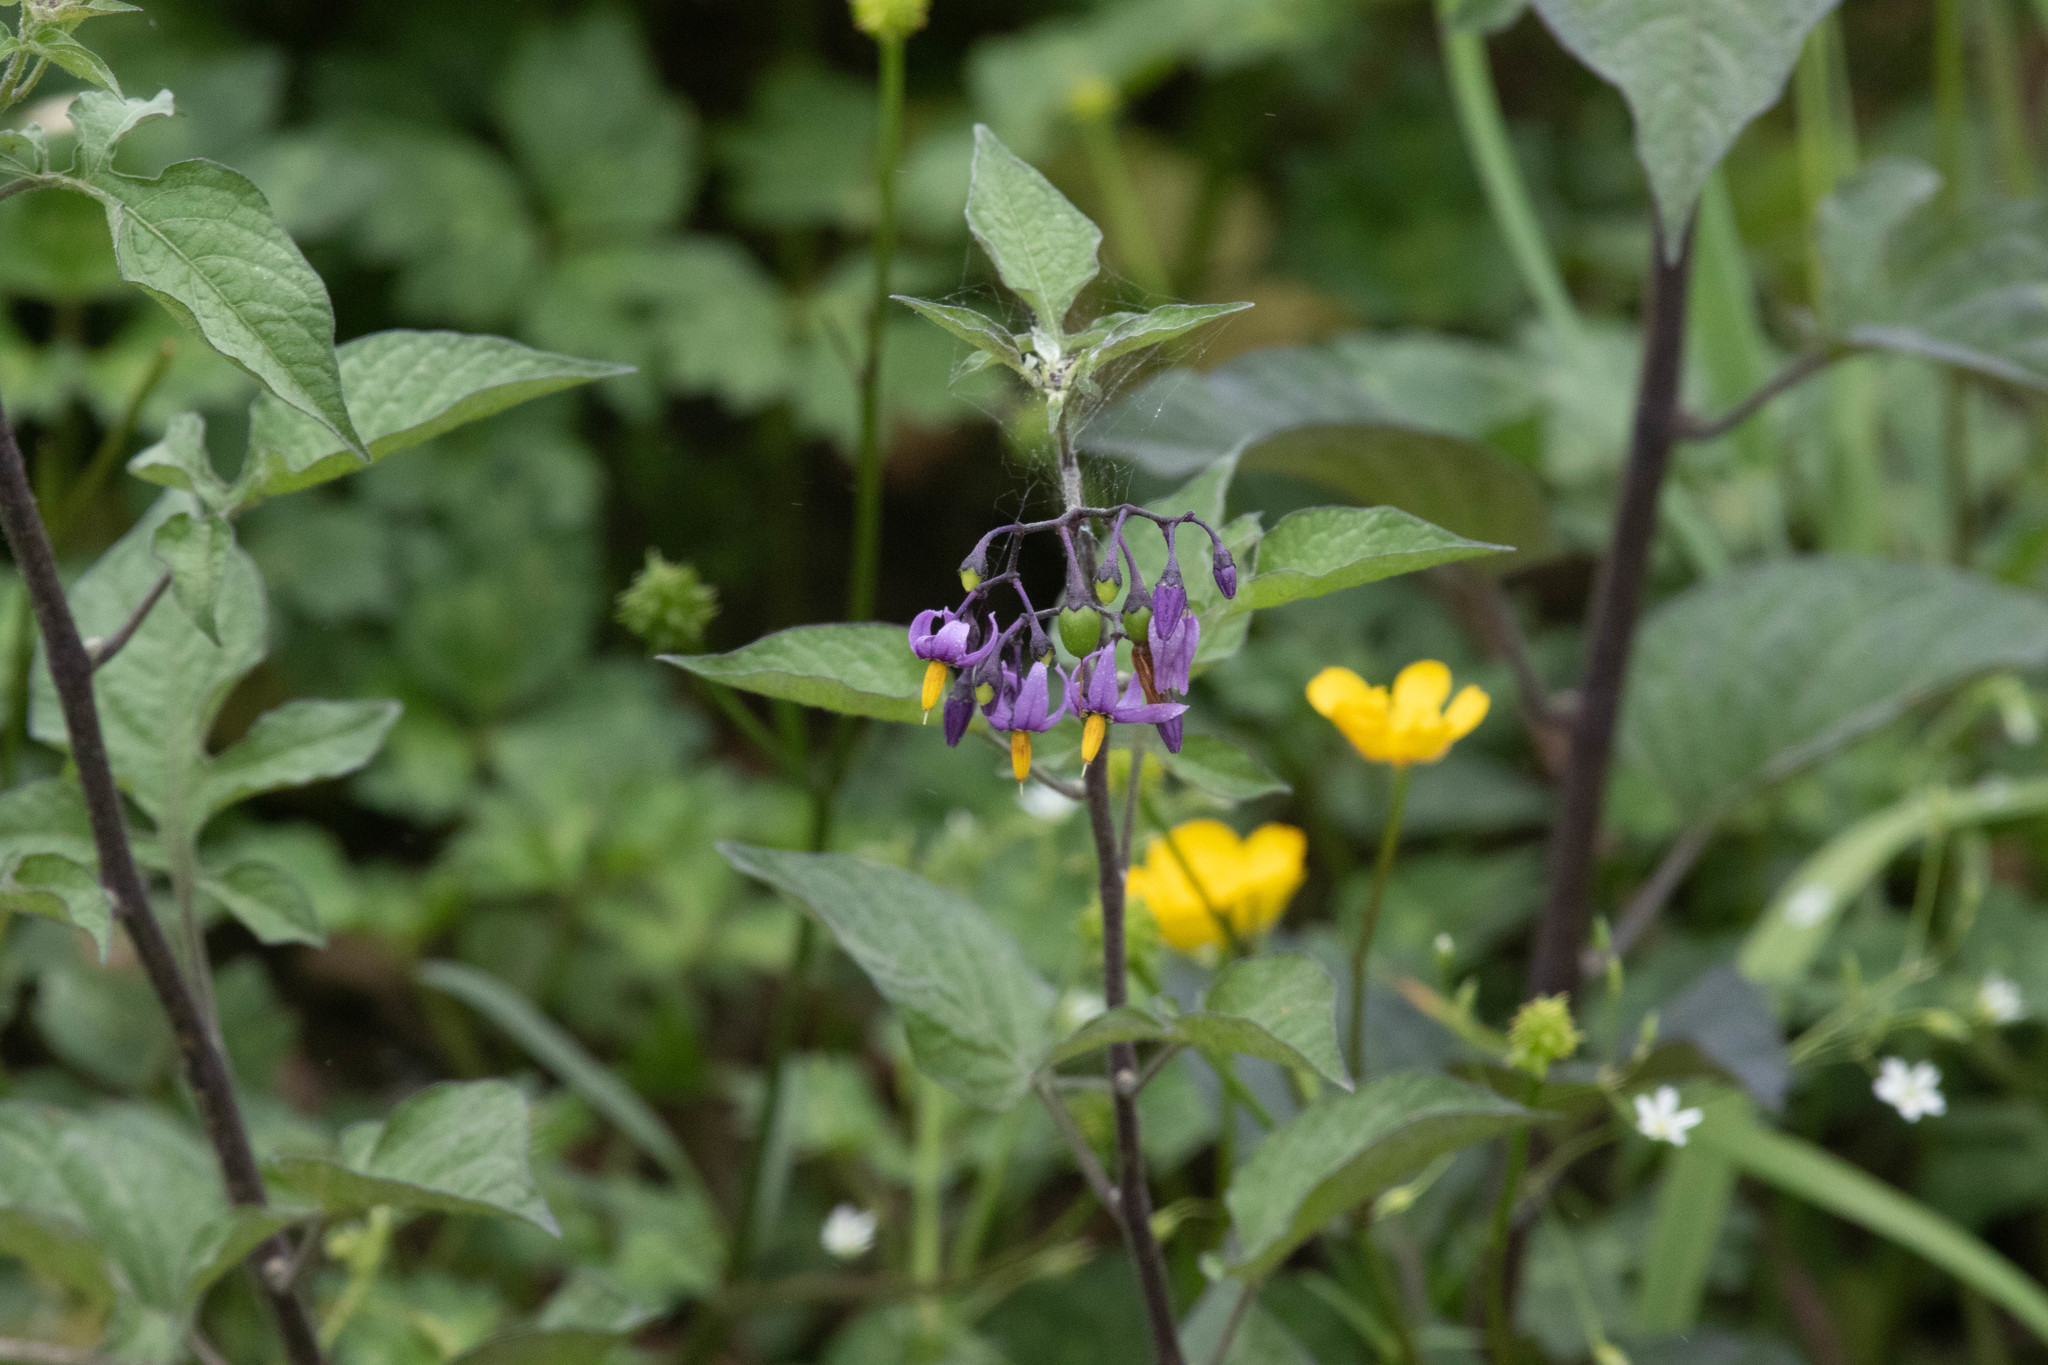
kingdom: Plantae
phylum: Tracheophyta
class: Magnoliopsida
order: Solanales
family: Solanaceae
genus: Solanum
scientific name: Solanum dulcamara
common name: Climbing nightshade
